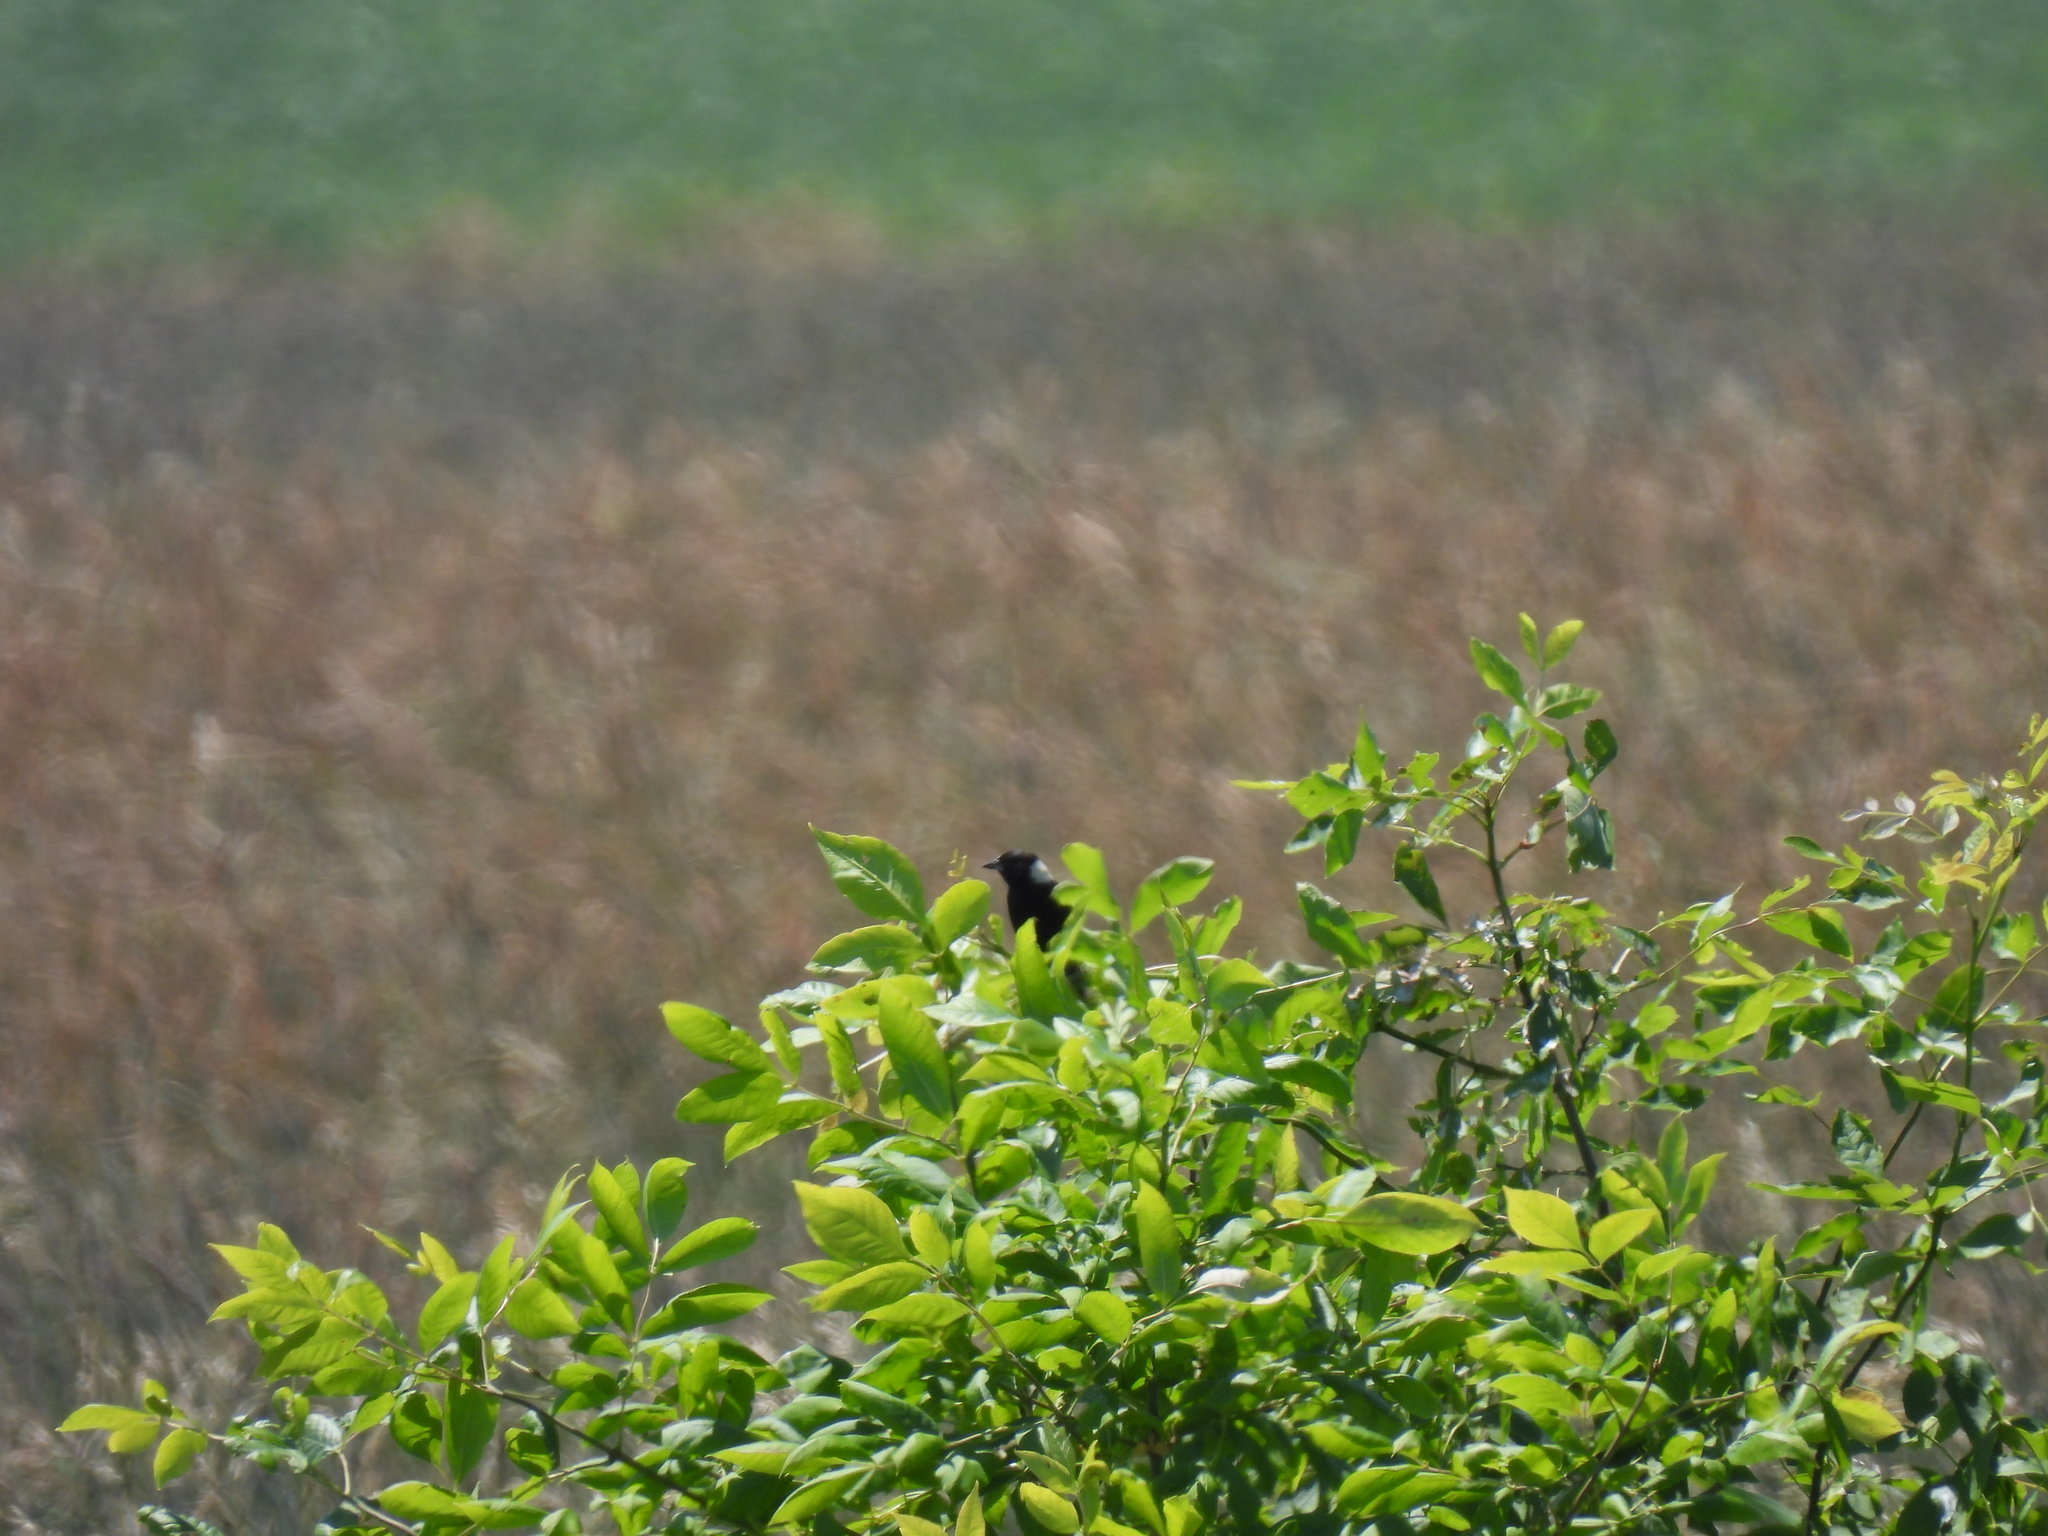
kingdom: Animalia
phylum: Chordata
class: Aves
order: Passeriformes
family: Icteridae
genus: Dolichonyx
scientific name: Dolichonyx oryzivorus
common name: Bobolink
